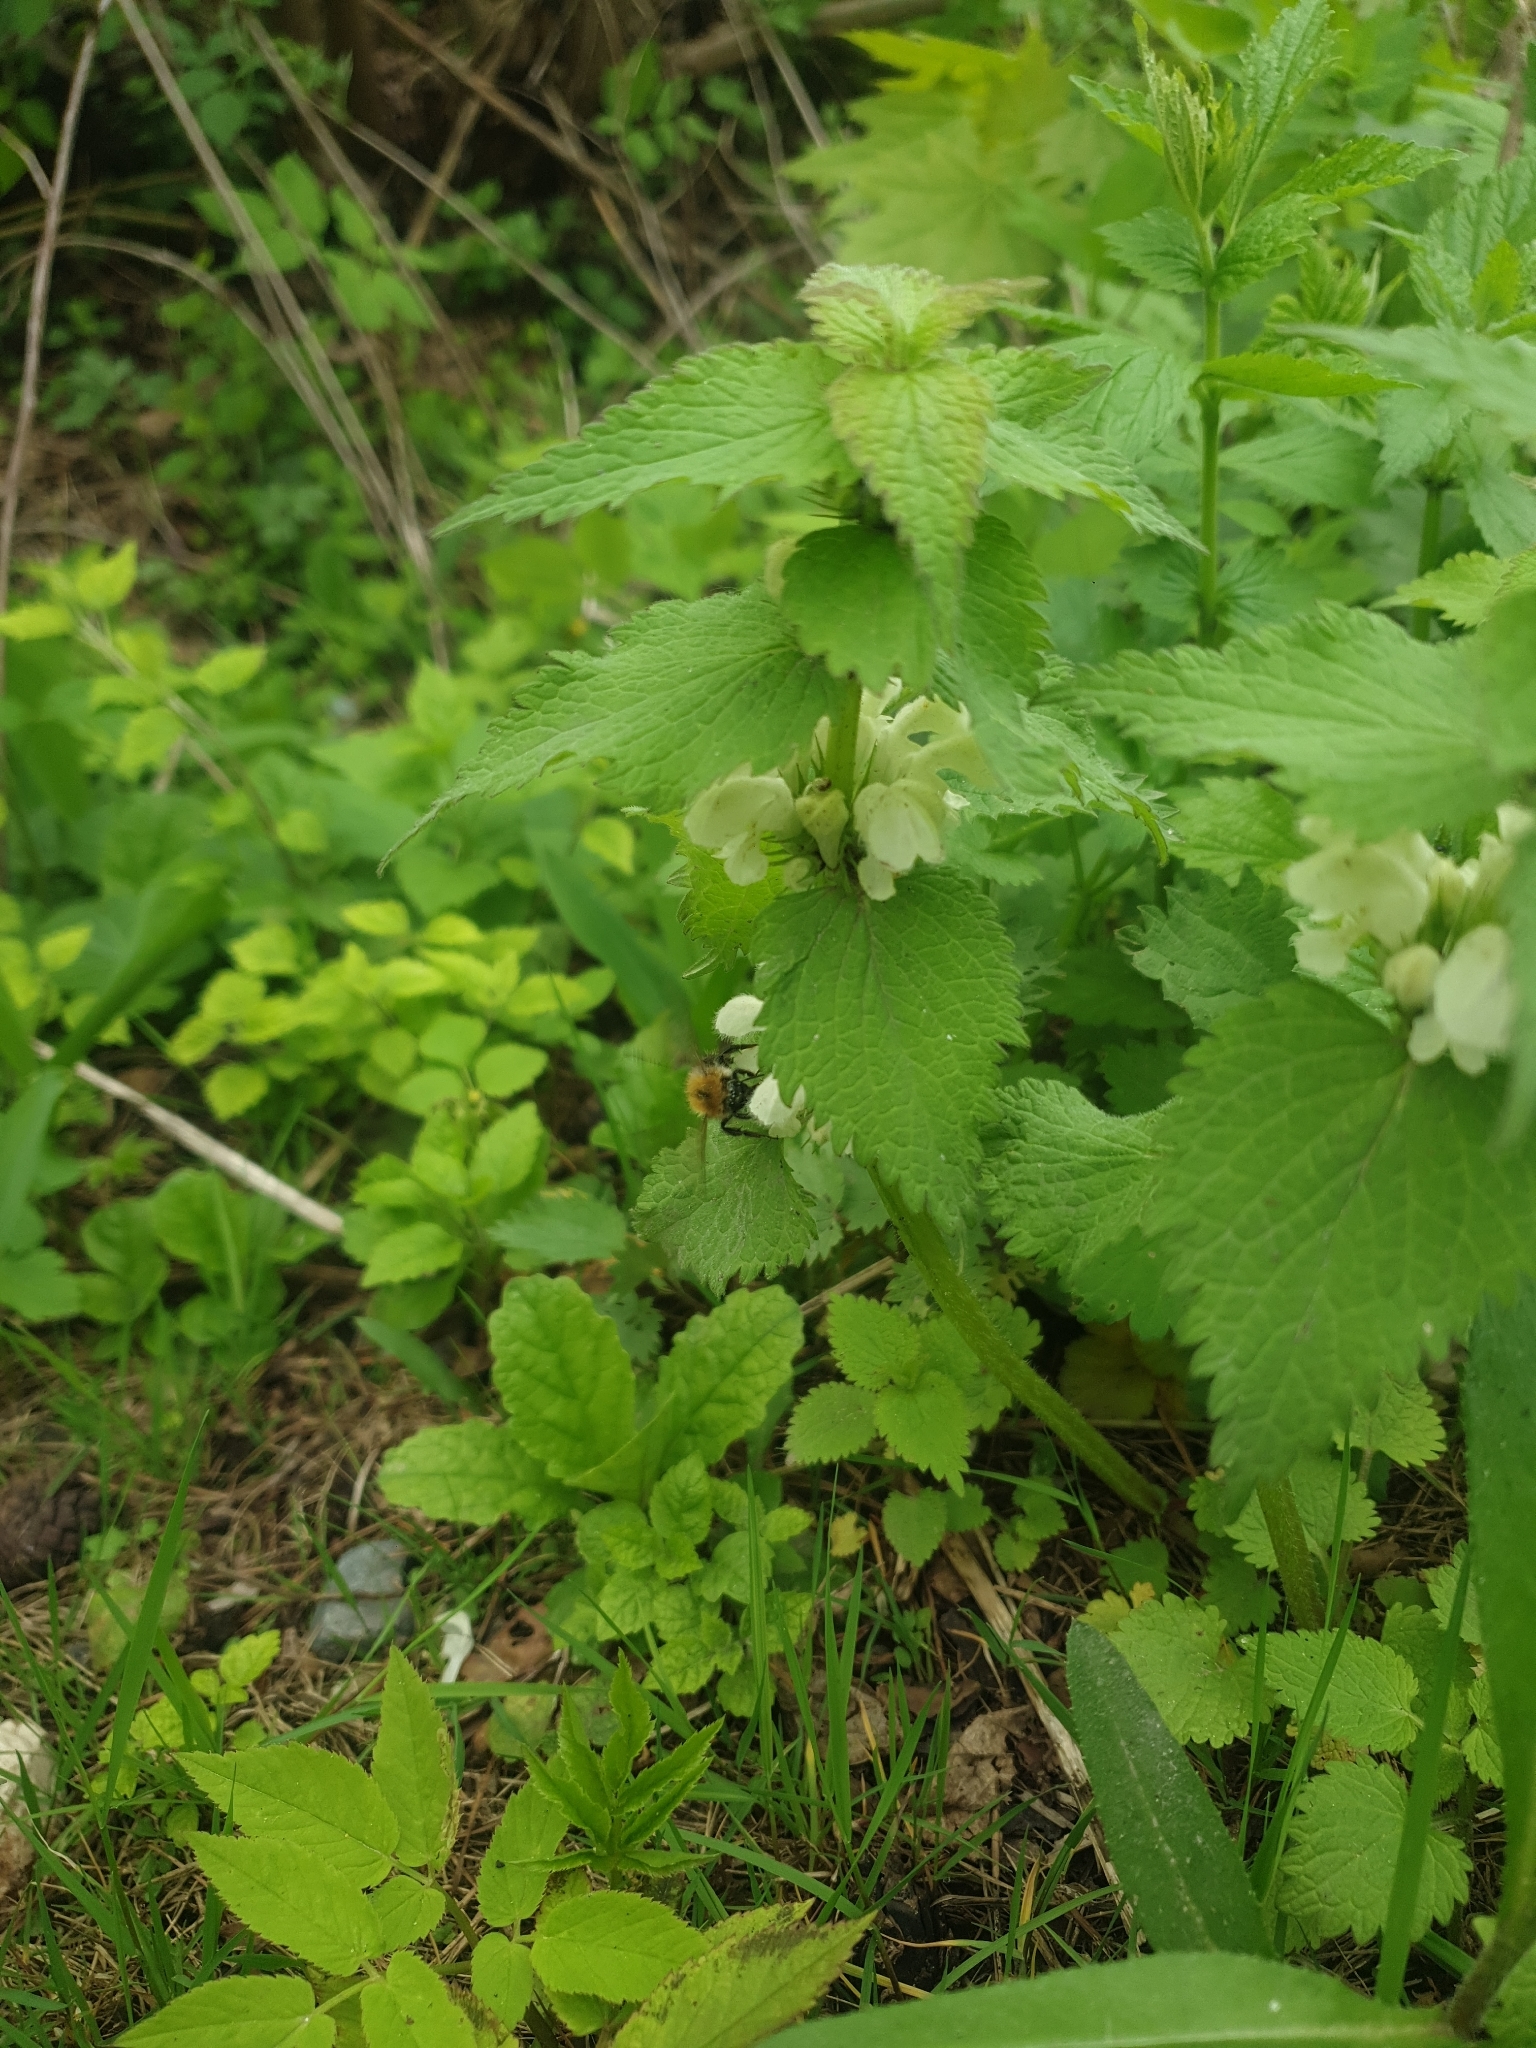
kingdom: Plantae
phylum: Tracheophyta
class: Magnoliopsida
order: Lamiales
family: Lamiaceae
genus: Lamium
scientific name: Lamium album
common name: White dead-nettle
